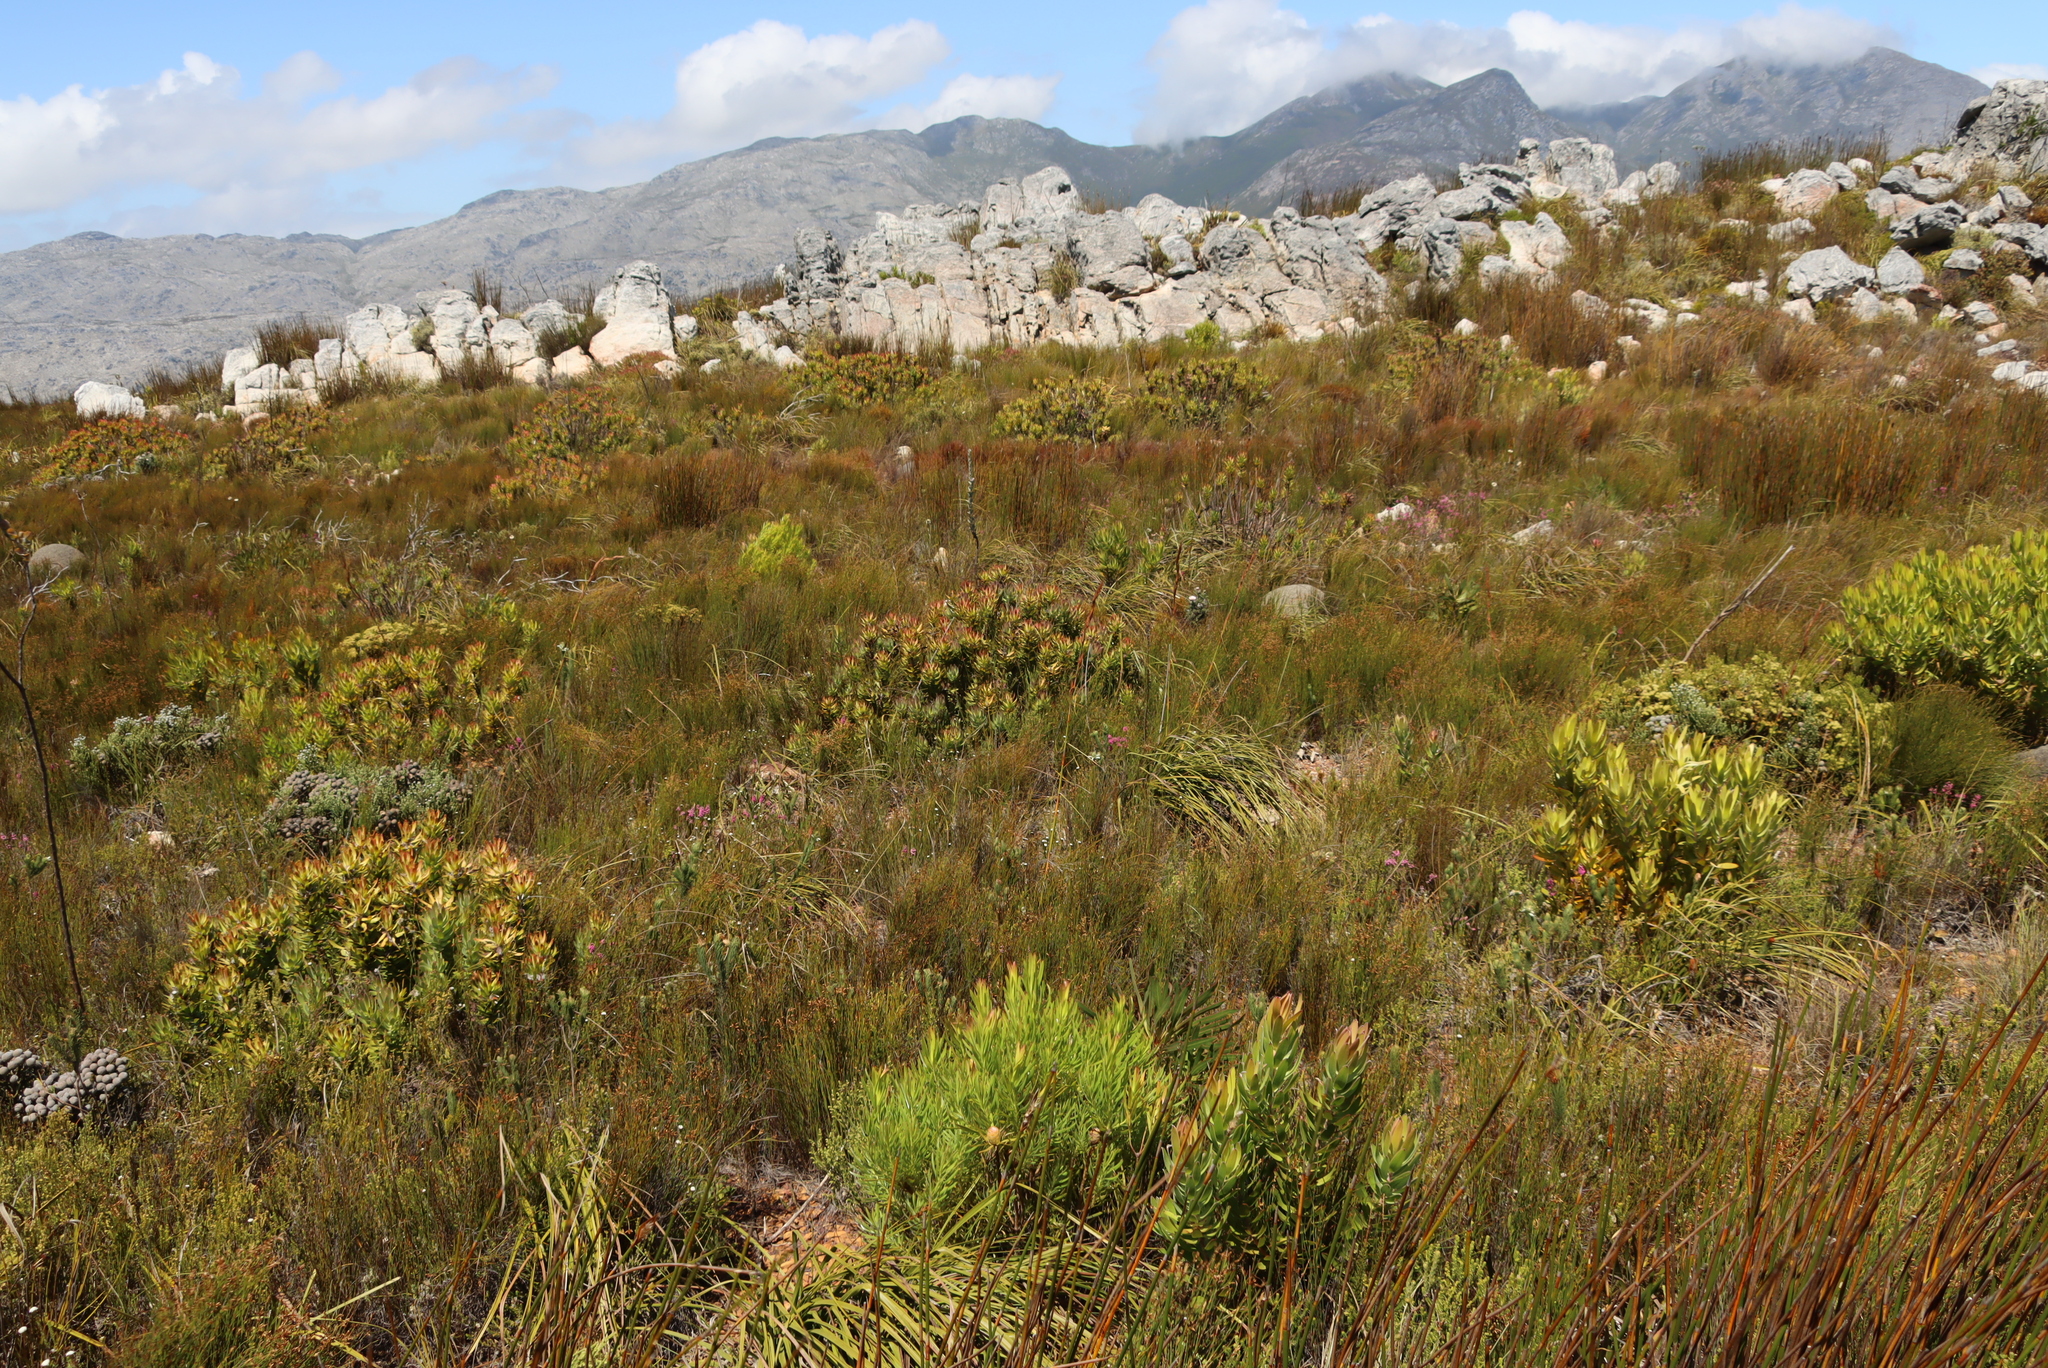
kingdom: Plantae
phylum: Tracheophyta
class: Magnoliopsida
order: Proteales
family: Proteaceae
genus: Mimetes
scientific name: Mimetes cucullatus
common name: Common pagoda
